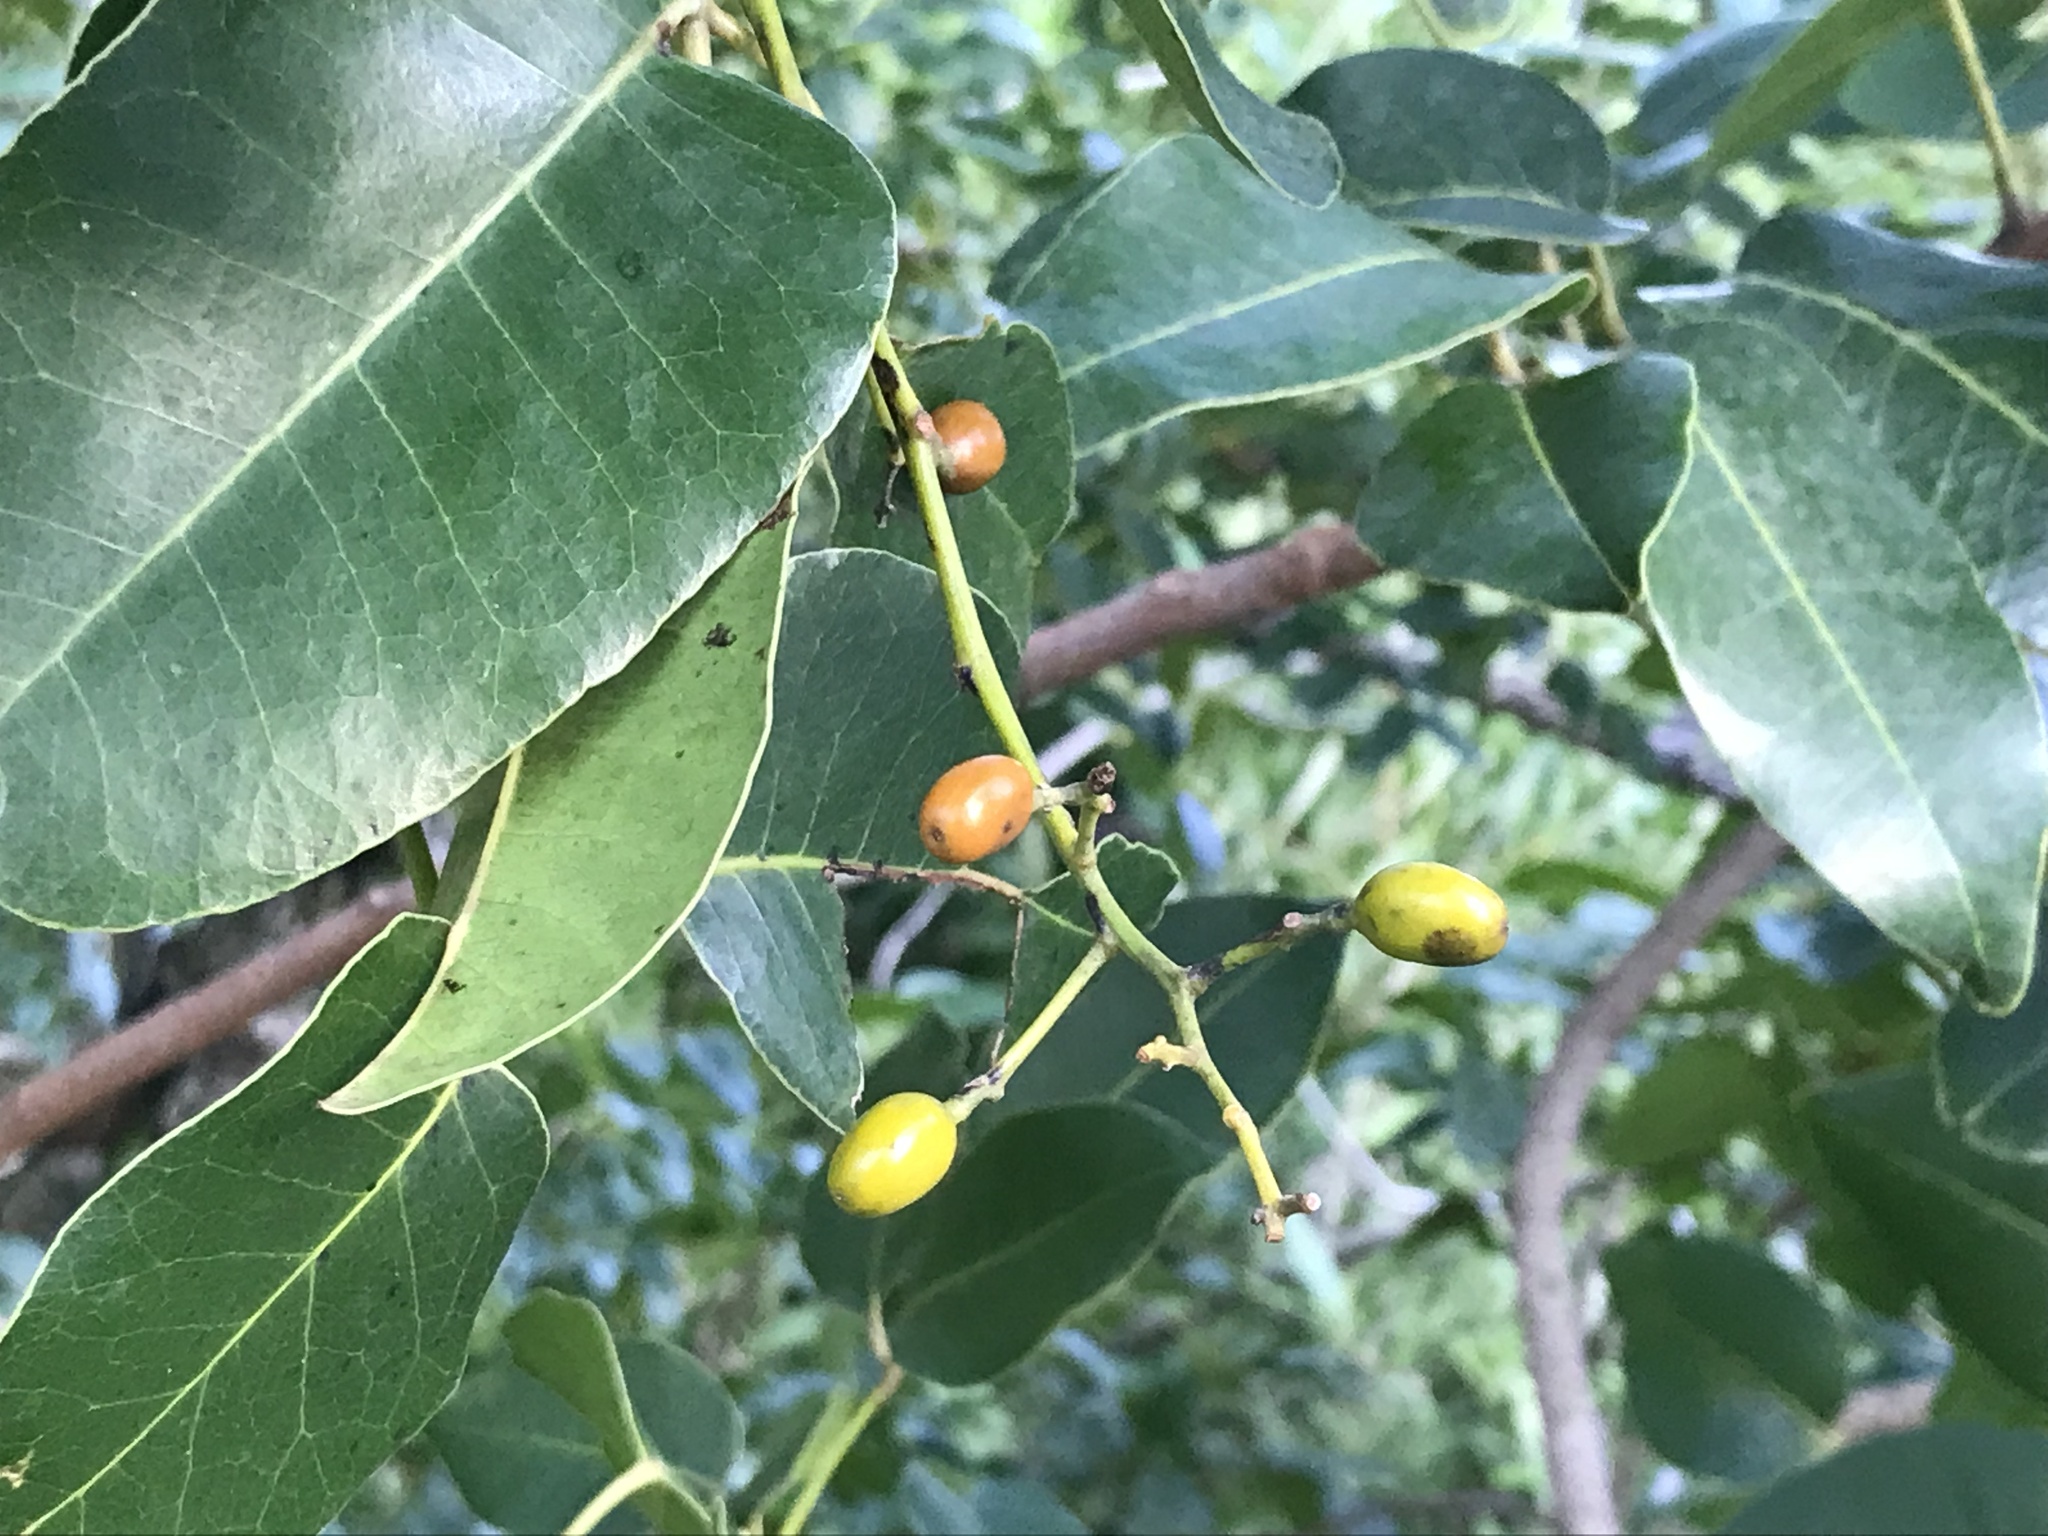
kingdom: Plantae
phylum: Tracheophyta
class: Magnoliopsida
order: Sapindales
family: Anacardiaceae
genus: Metopium
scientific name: Metopium toxiferum
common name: Florida poisontree
